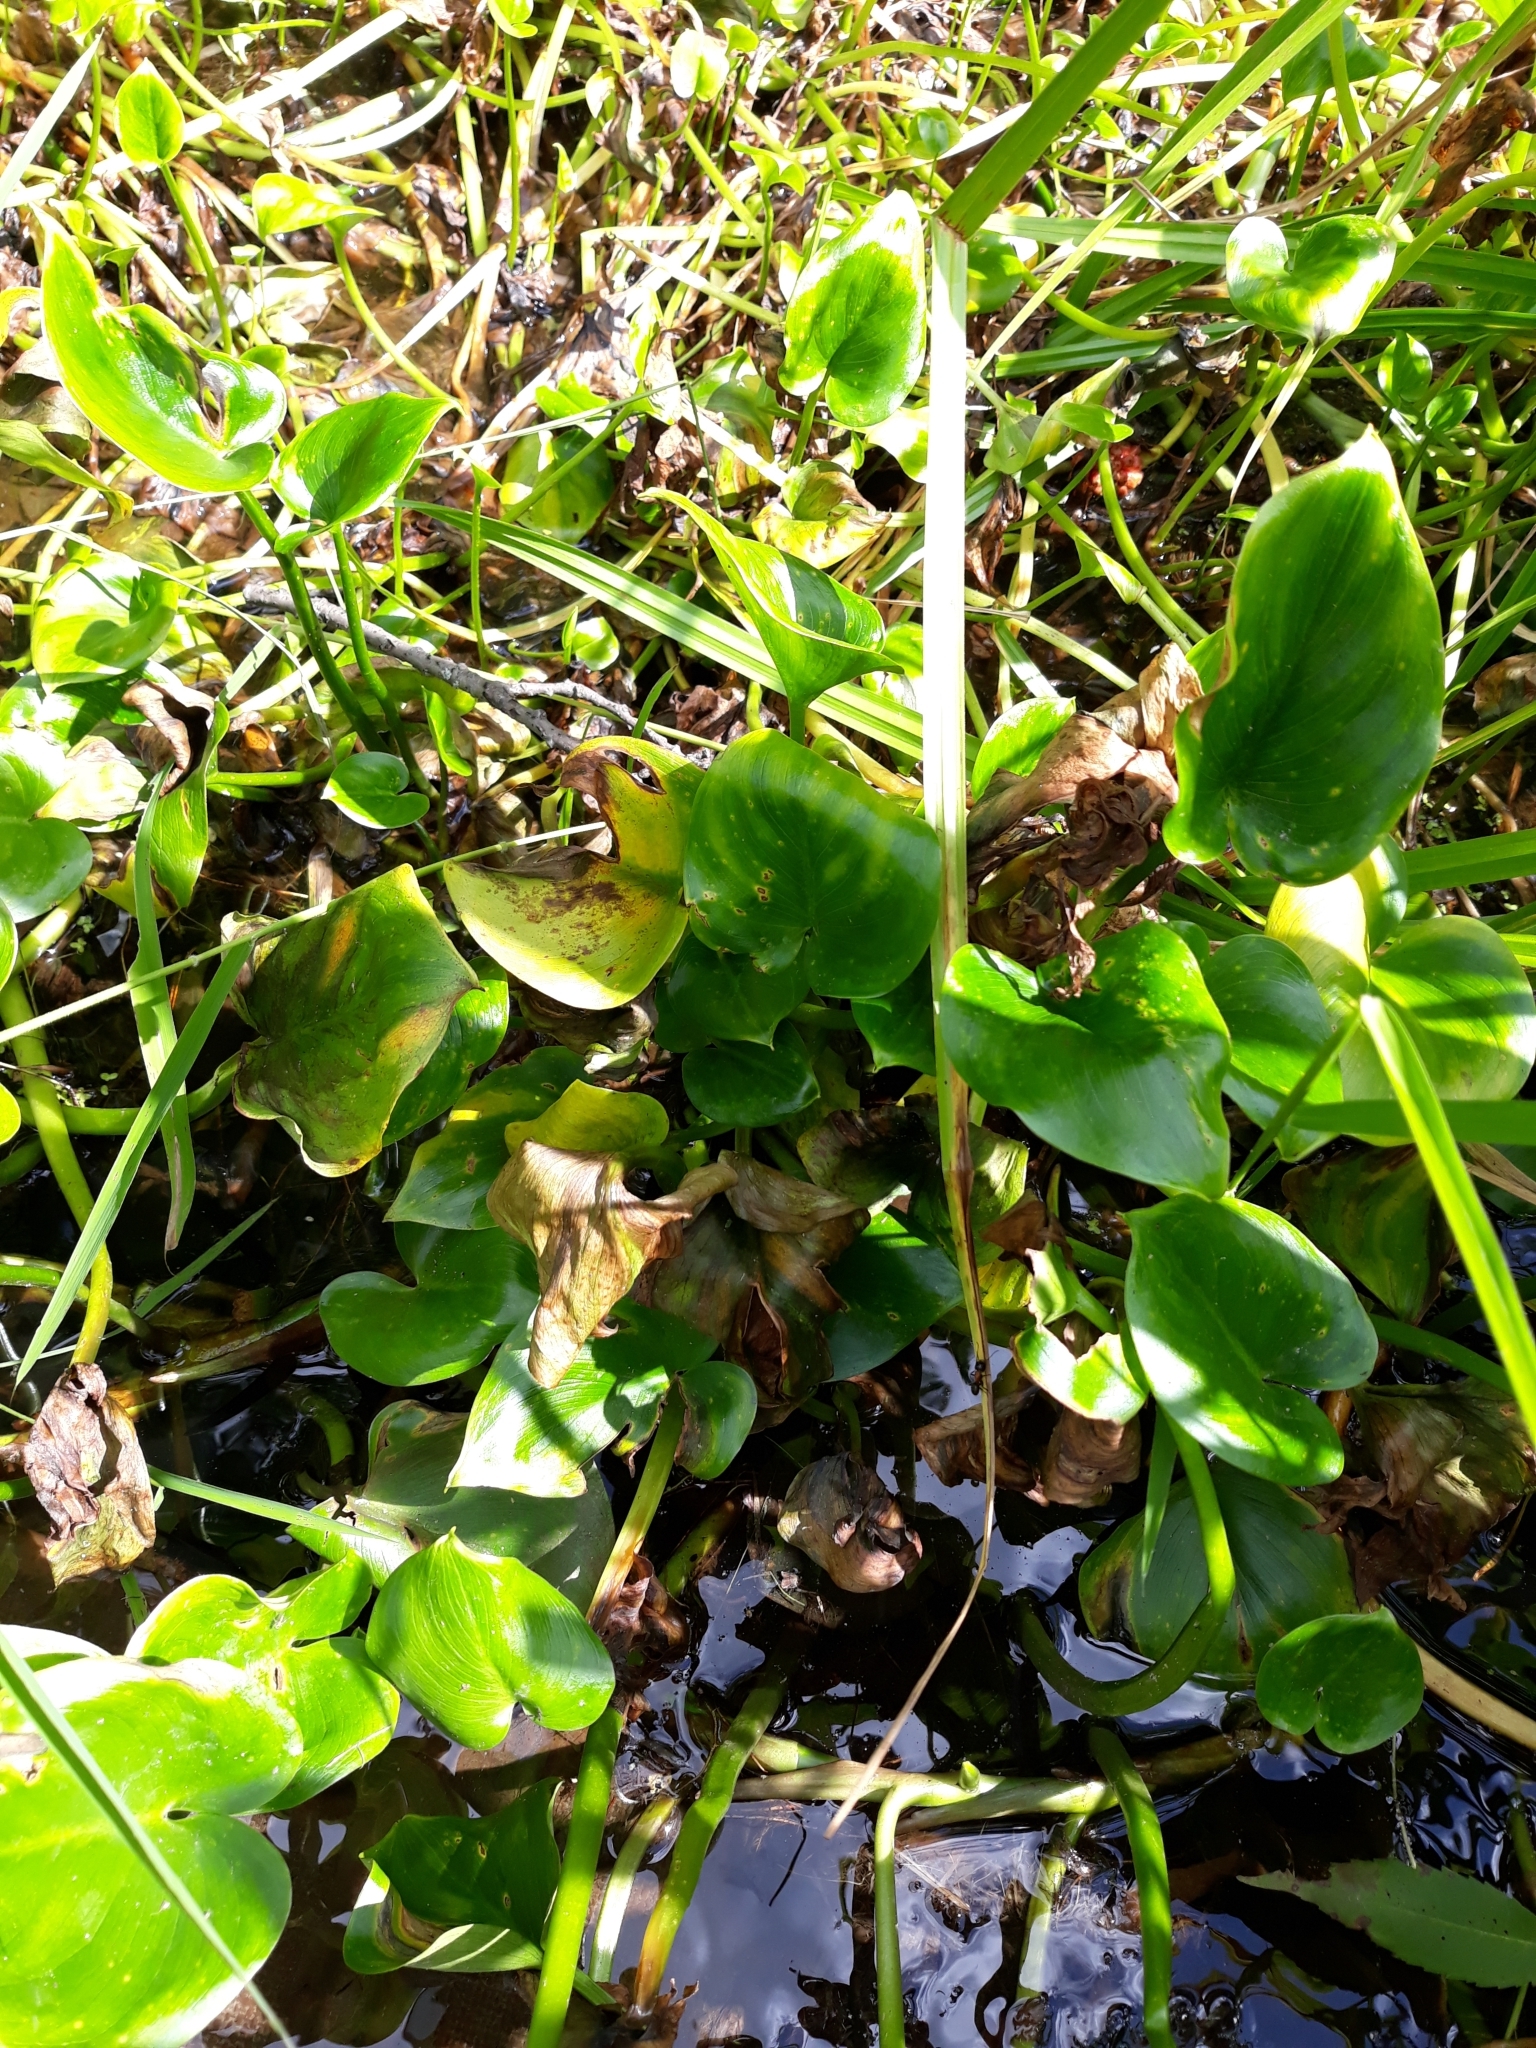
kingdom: Plantae
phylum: Tracheophyta
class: Liliopsida
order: Alismatales
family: Araceae
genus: Calla
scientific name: Calla palustris
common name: Bog arum
